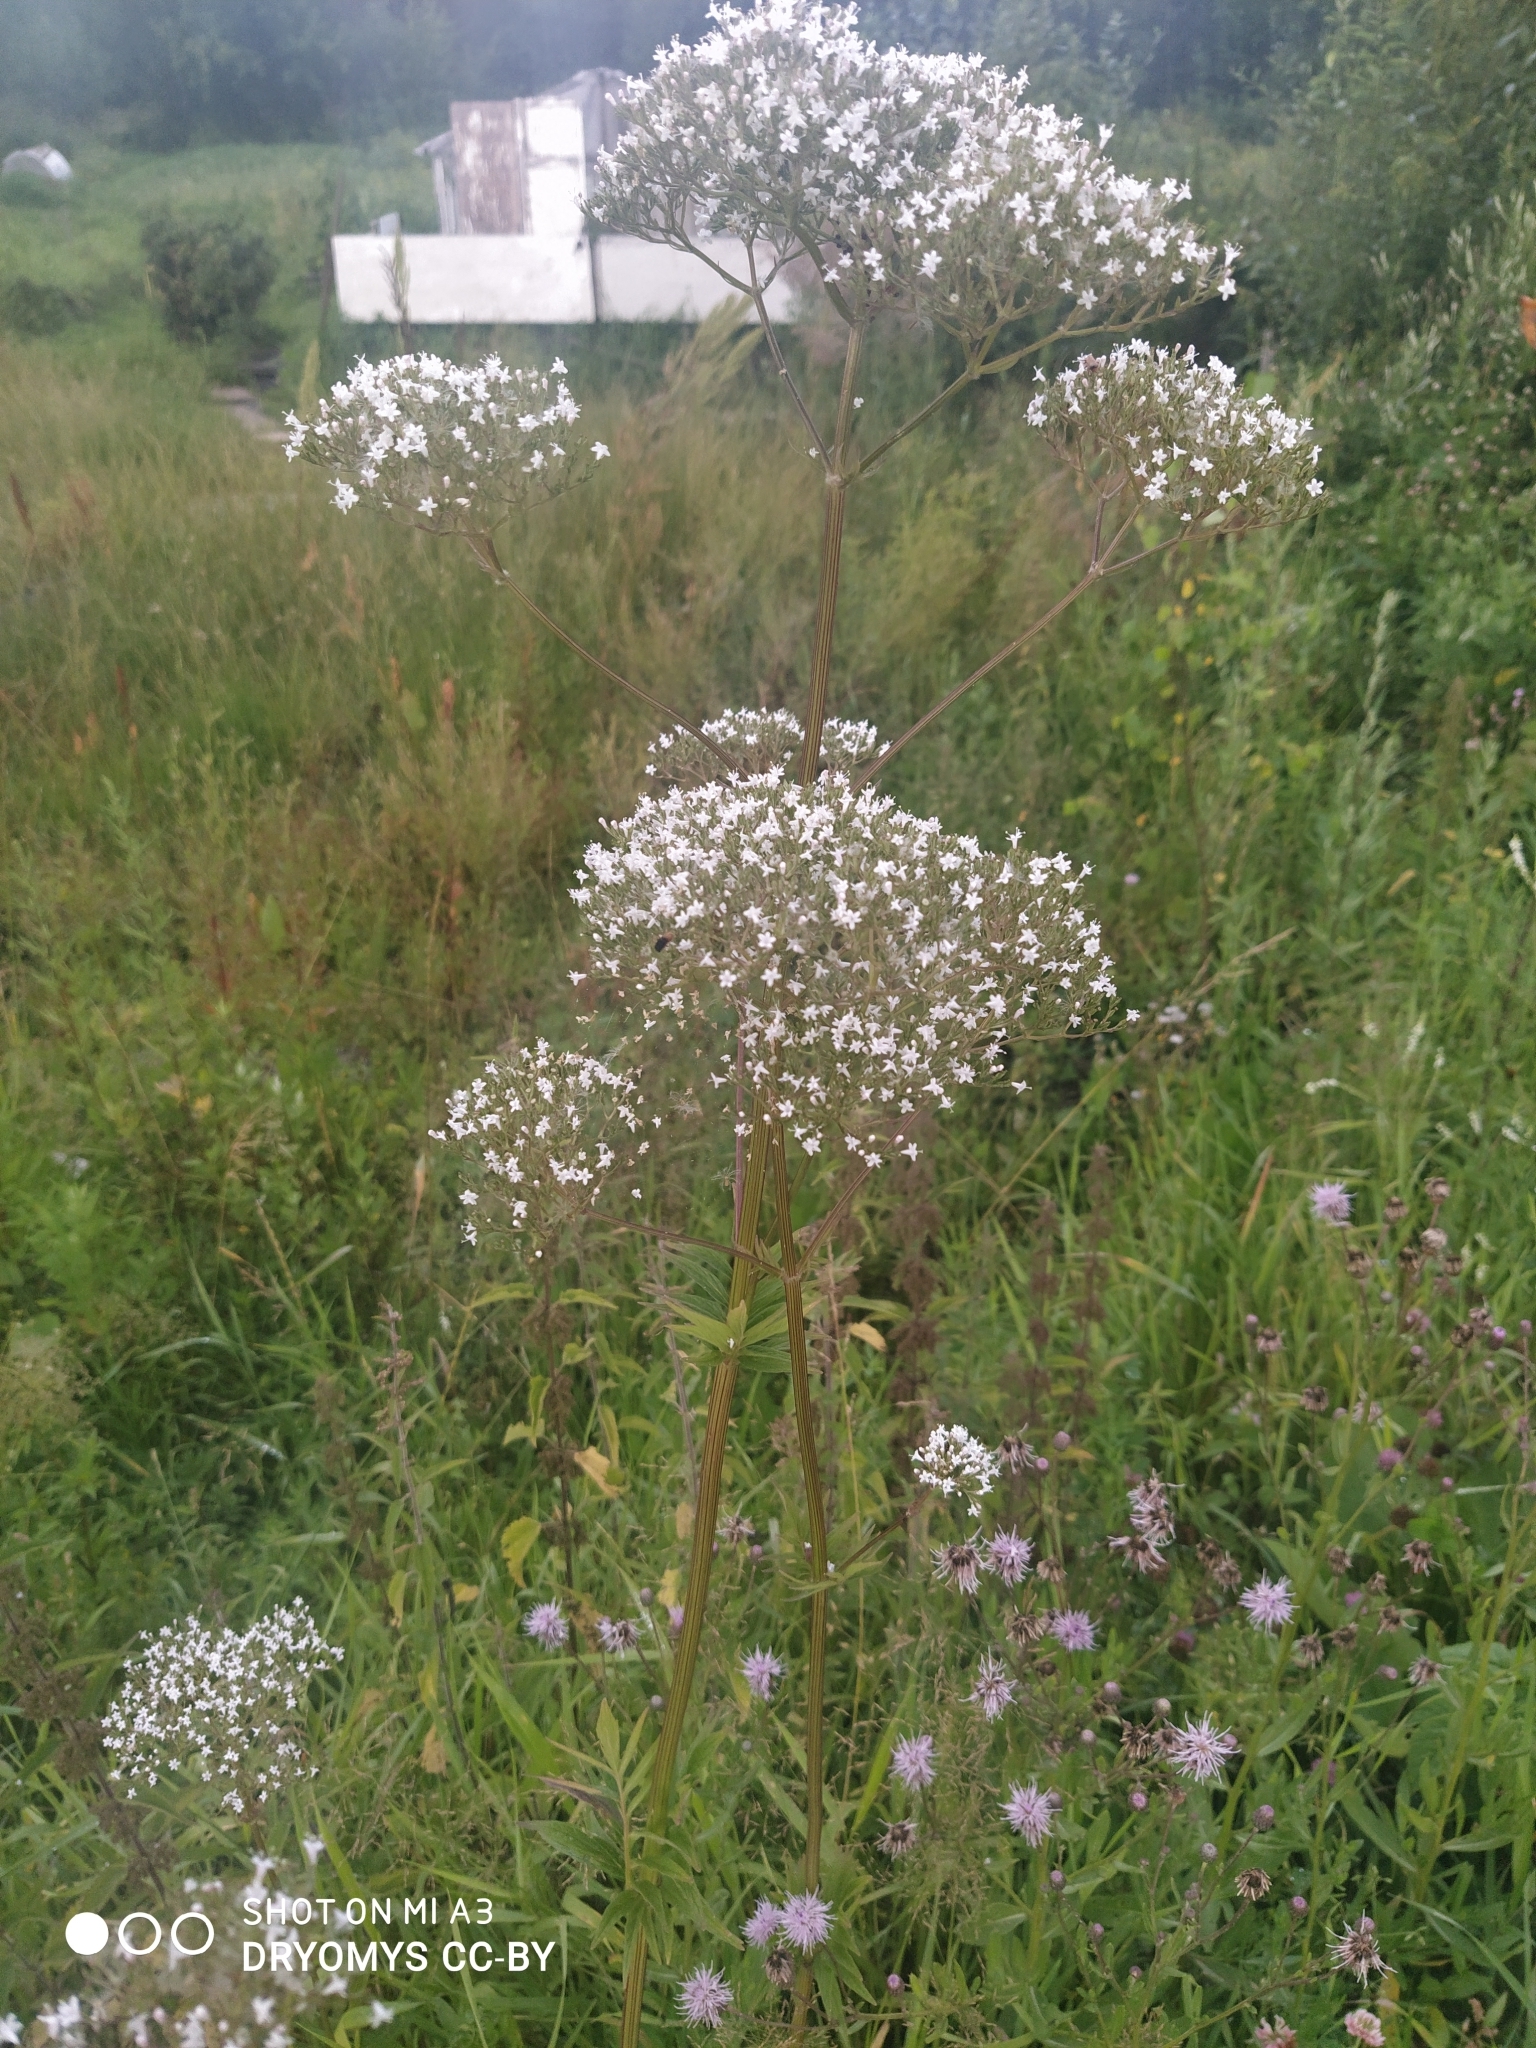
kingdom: Plantae
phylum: Tracheophyta
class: Magnoliopsida
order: Dipsacales
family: Caprifoliaceae
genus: Valeriana
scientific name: Valeriana officinalis
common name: Common valerian
